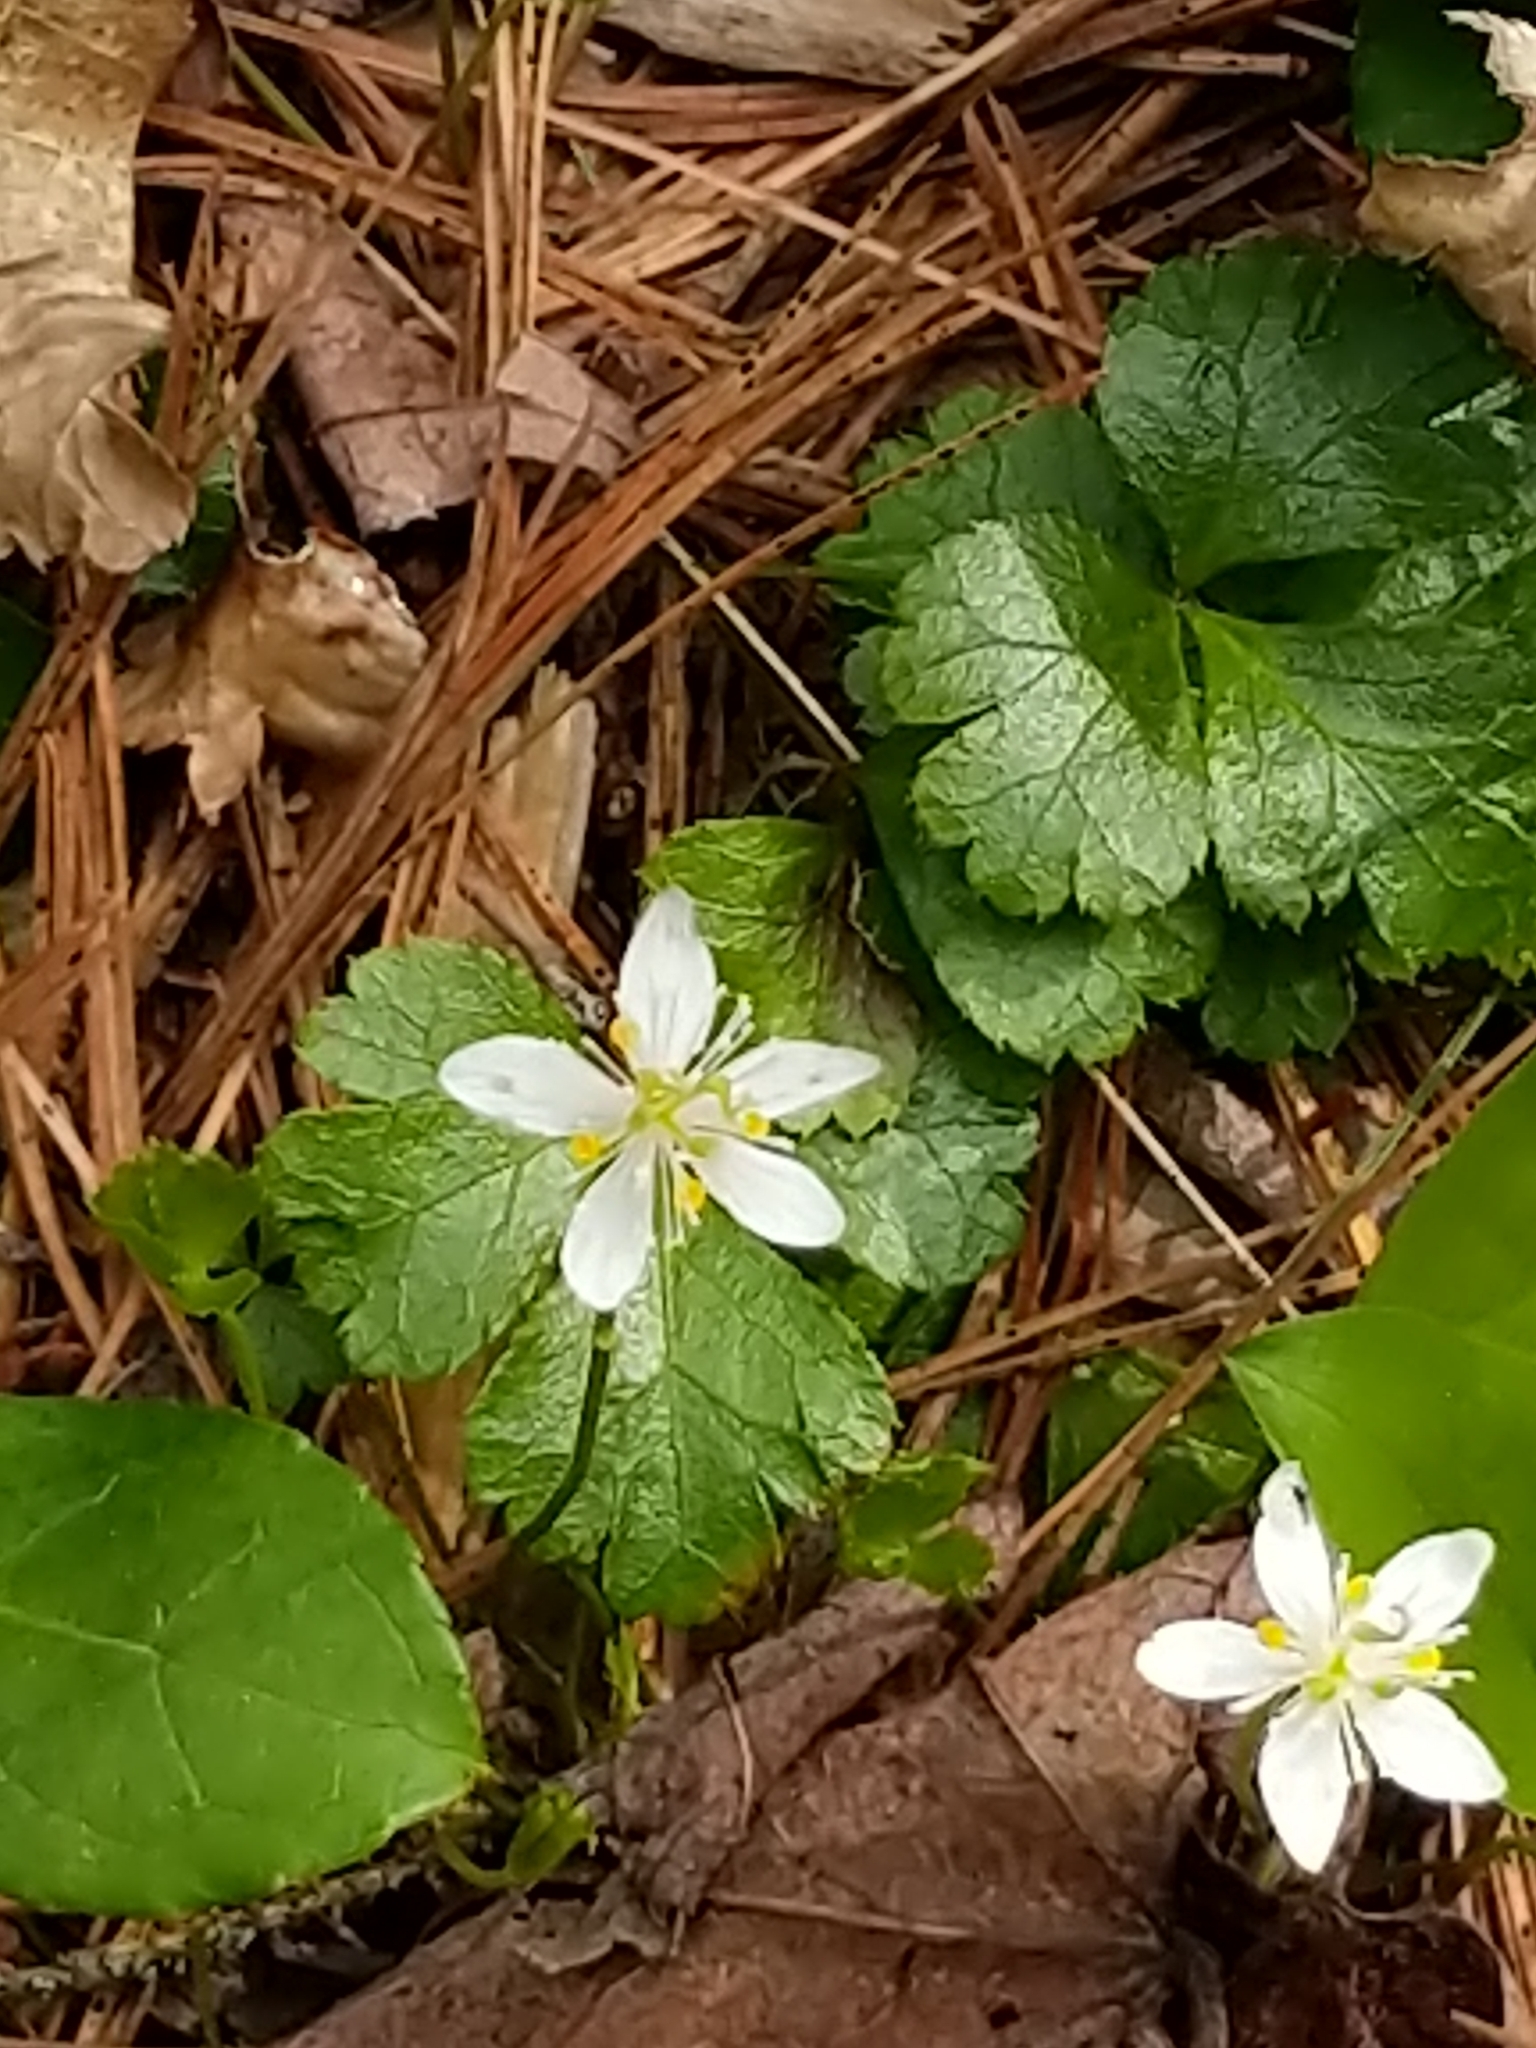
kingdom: Plantae
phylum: Tracheophyta
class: Magnoliopsida
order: Ranunculales
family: Ranunculaceae
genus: Coptis
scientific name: Coptis trifolia
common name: Canker-root
